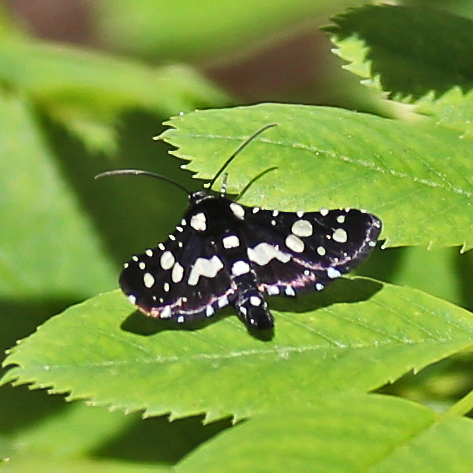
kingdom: Animalia
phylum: Arthropoda
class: Insecta
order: Lepidoptera
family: Thyrididae
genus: Pseudothyris
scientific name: Pseudothyris sepulchralis
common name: Mournful thyris moth
